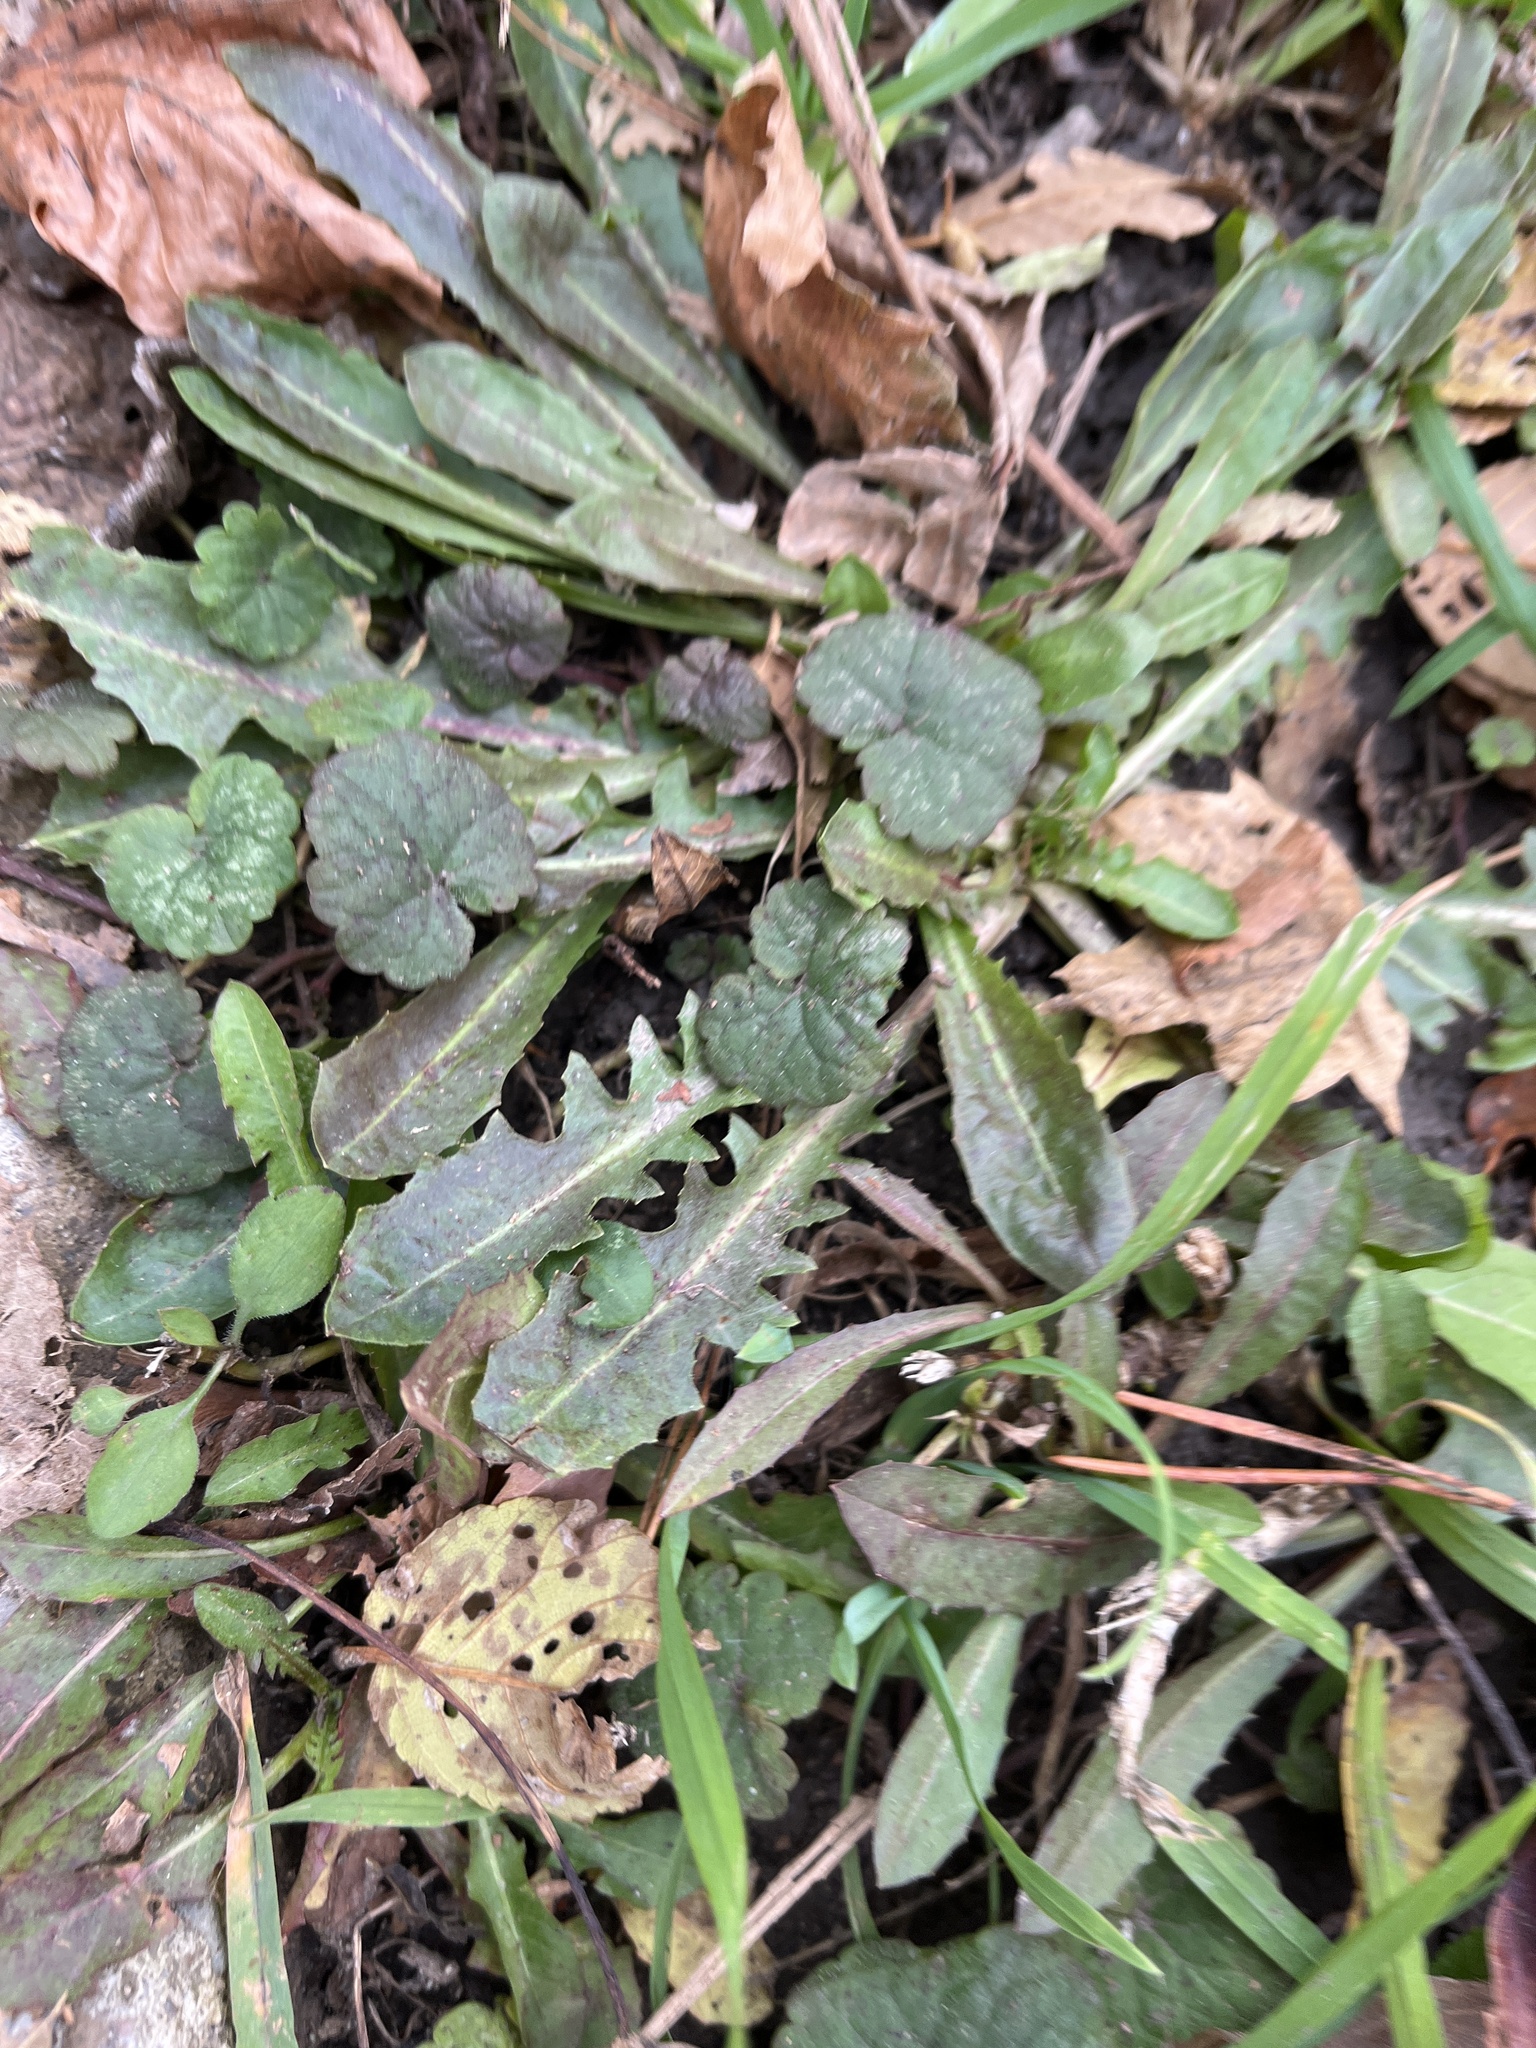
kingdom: Plantae
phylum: Tracheophyta
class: Magnoliopsida
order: Lamiales
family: Lamiaceae
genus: Glechoma
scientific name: Glechoma hederacea
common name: Ground ivy
